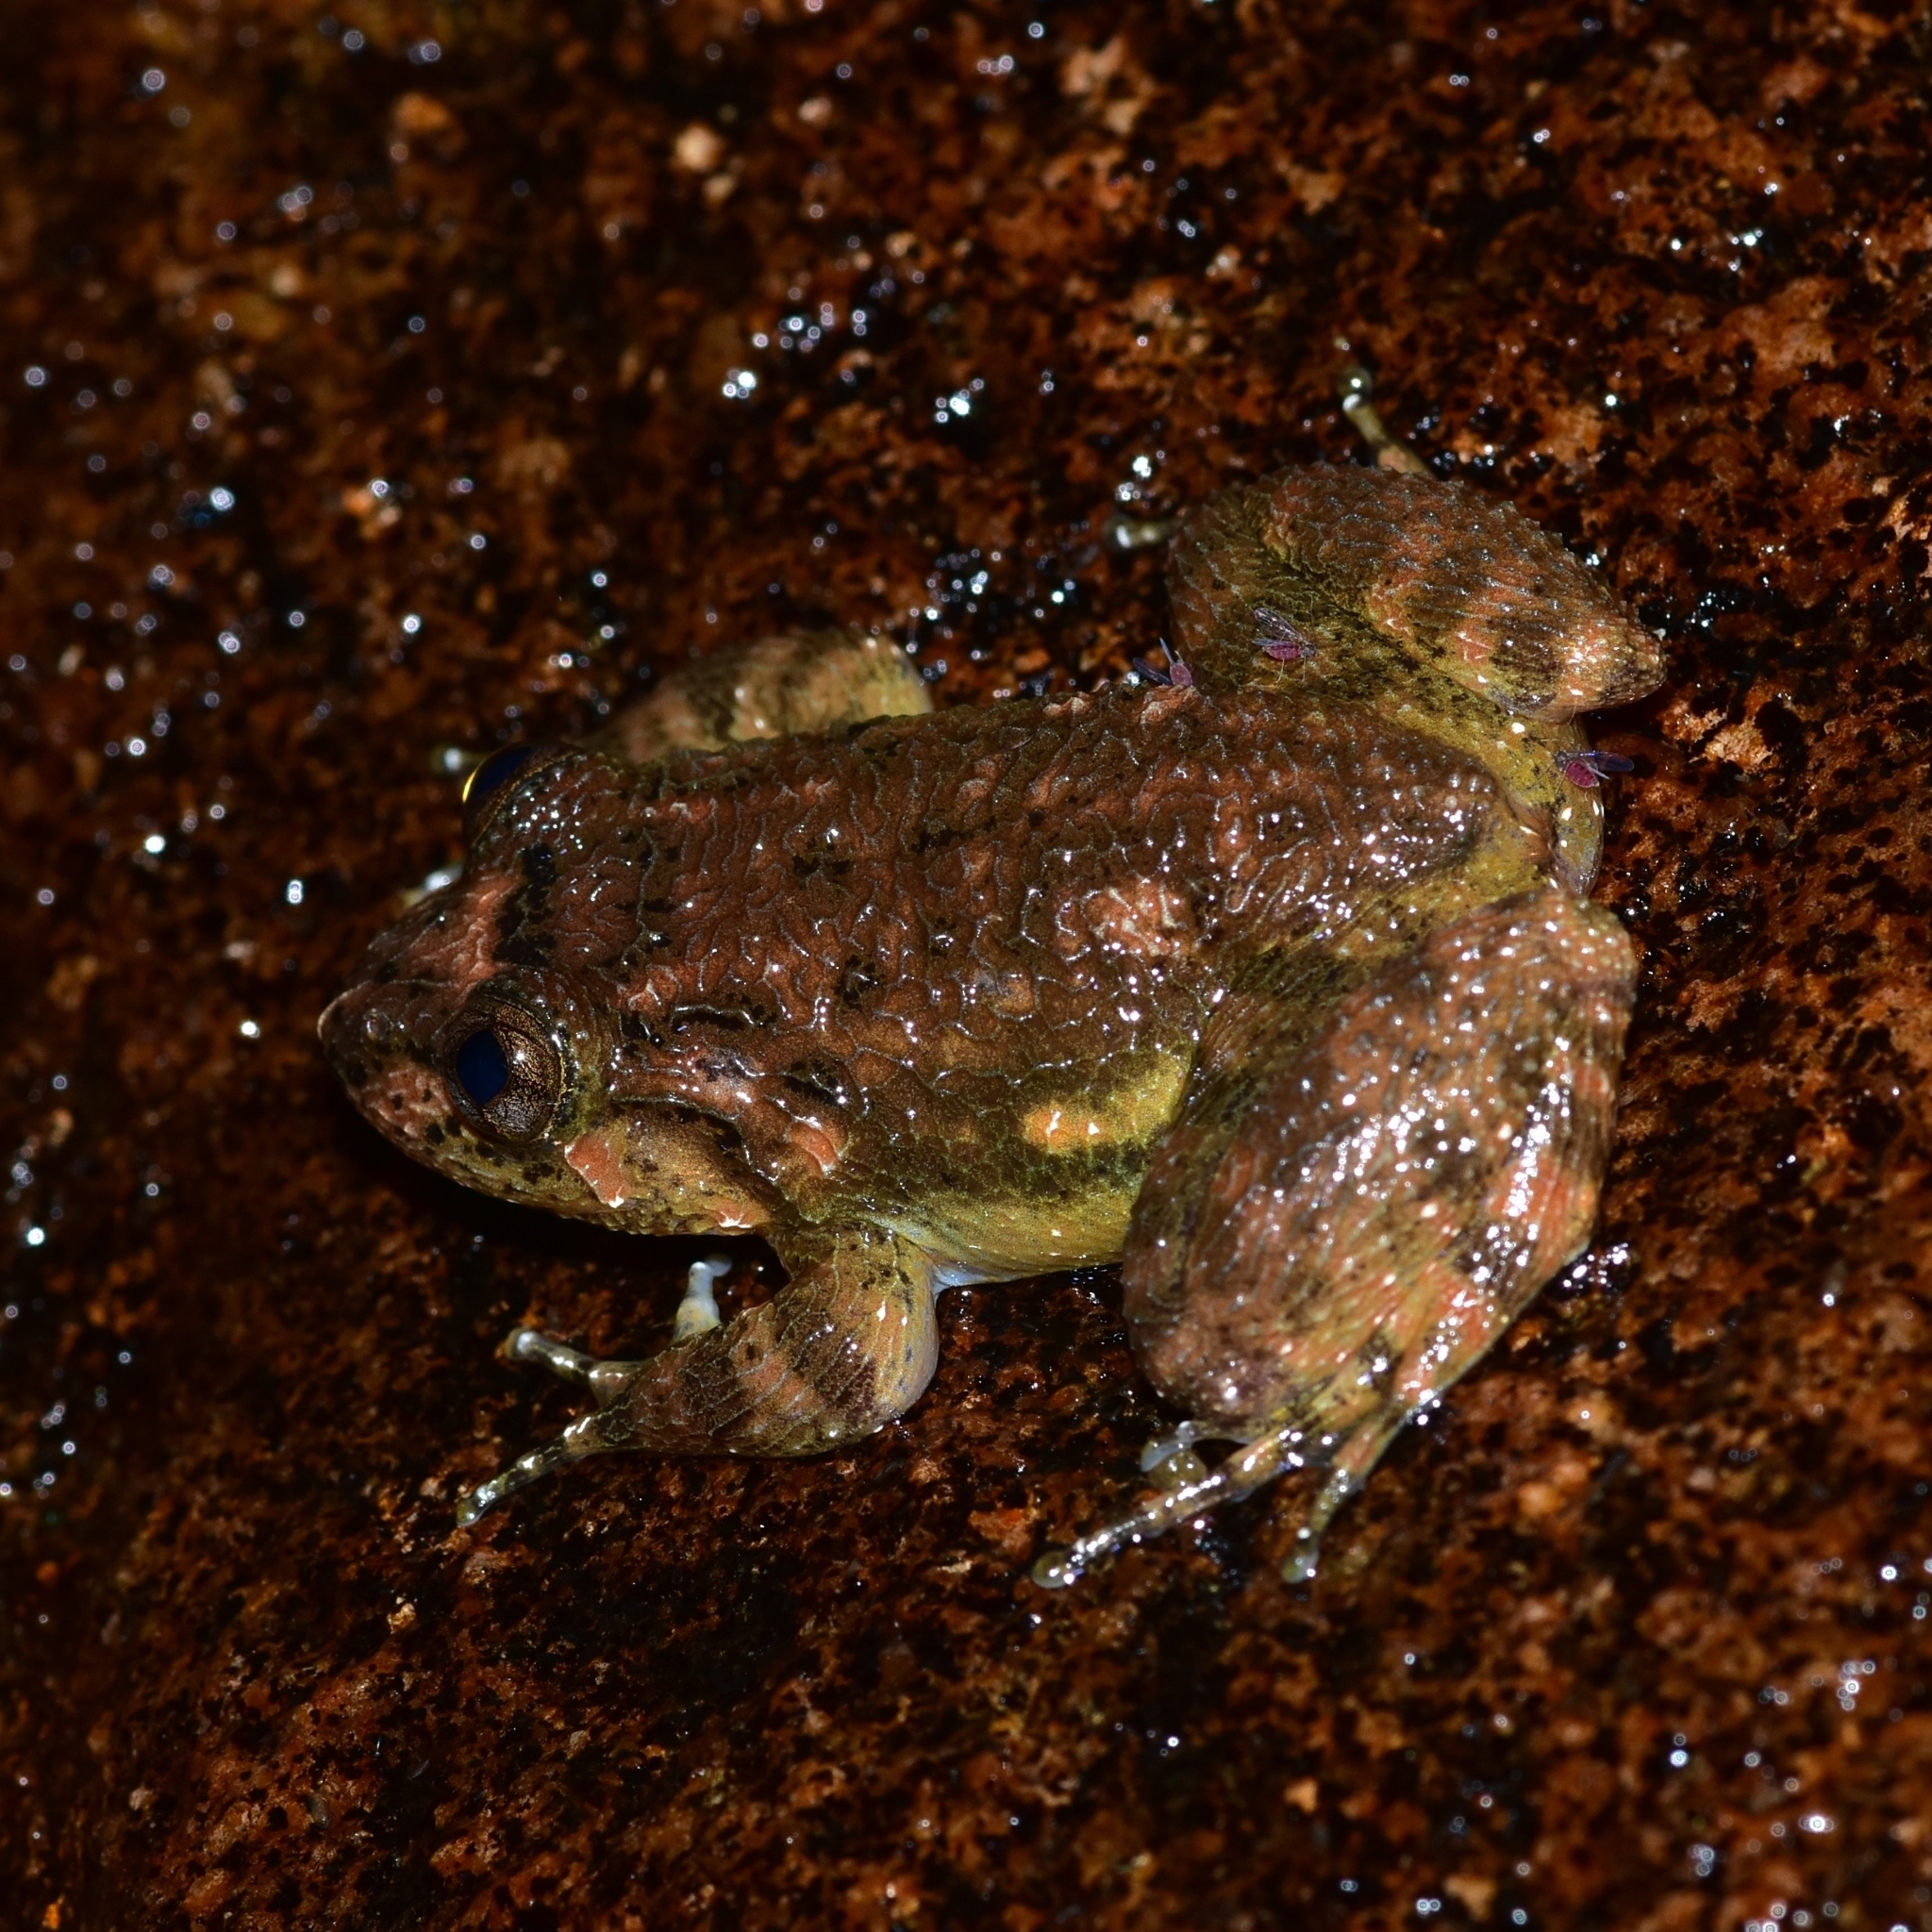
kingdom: Animalia
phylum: Chordata
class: Amphibia
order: Anura
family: Nyctibatrachidae
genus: Nyctibatrachus
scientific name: Nyctibatrachus poocha
